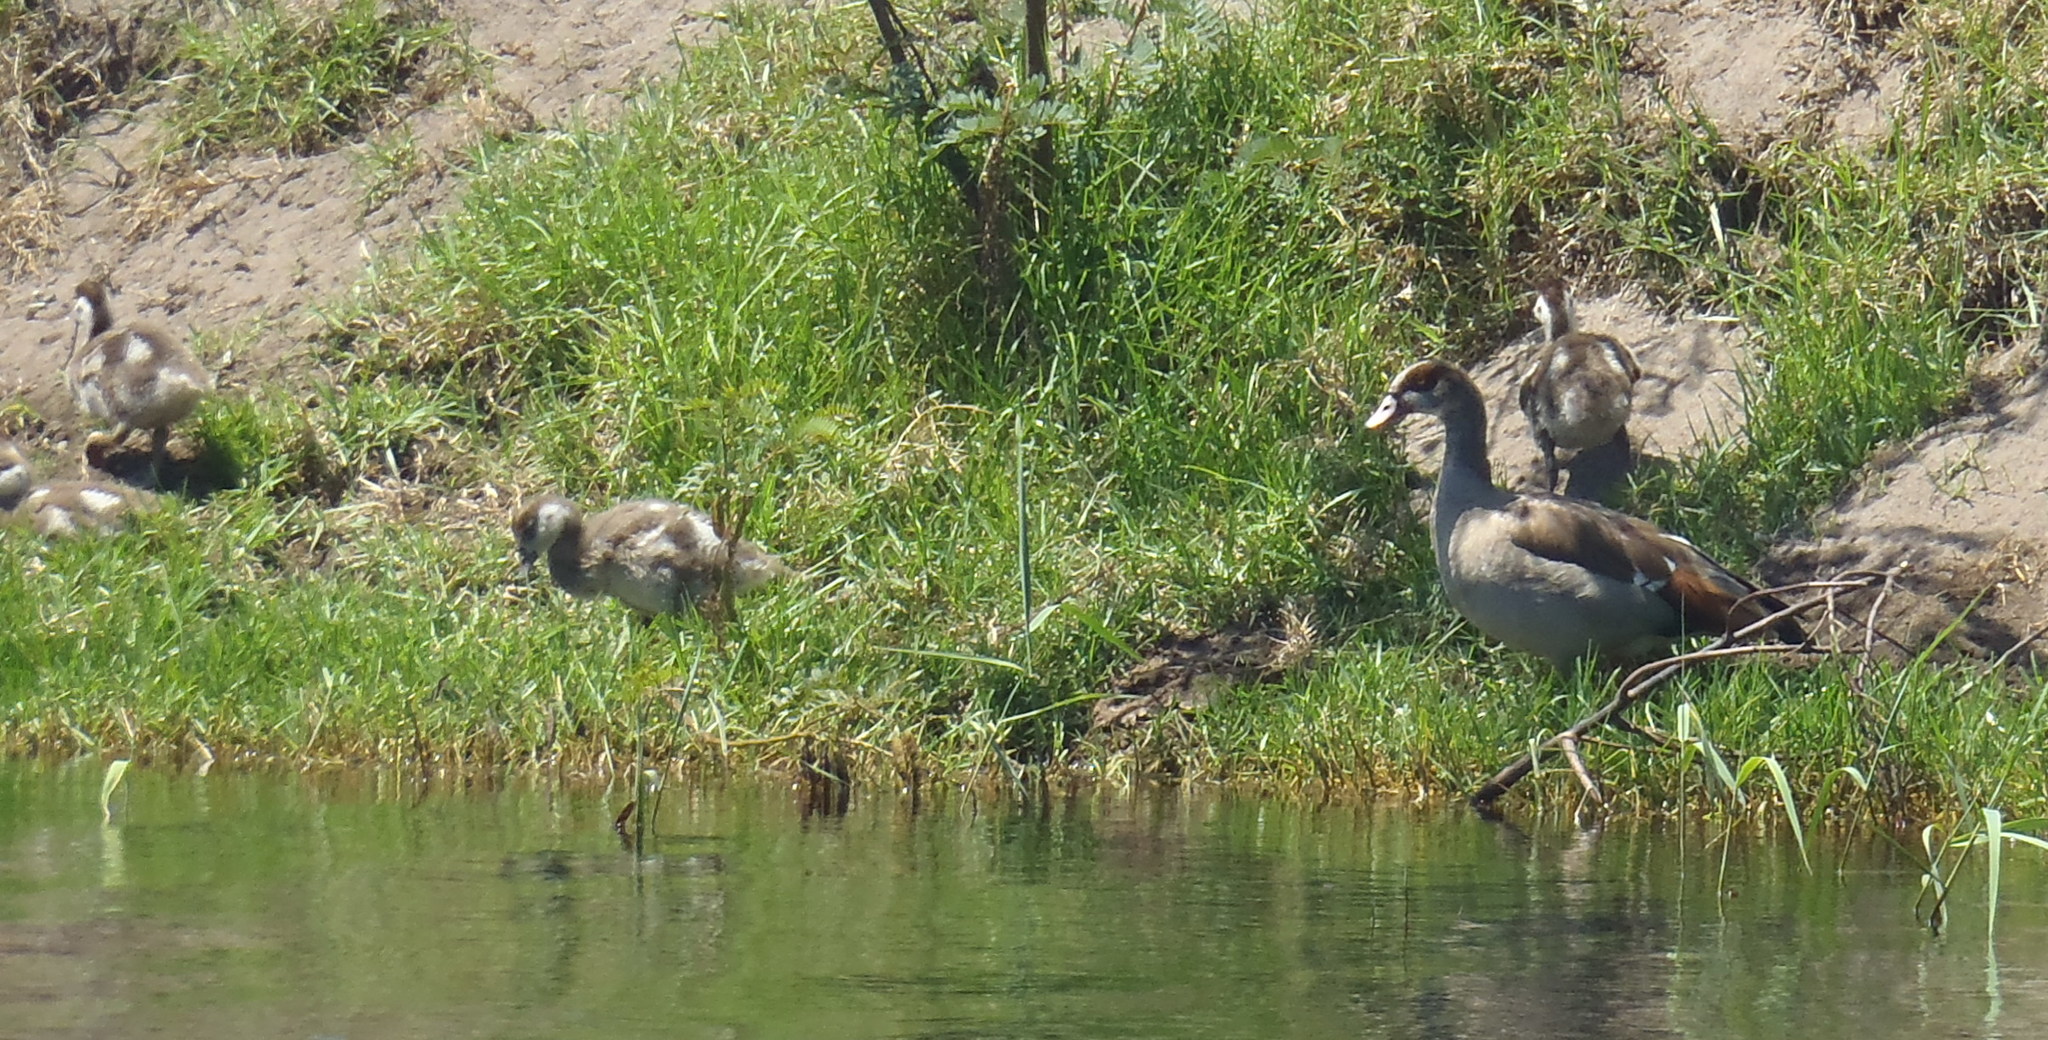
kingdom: Animalia
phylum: Chordata
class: Aves
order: Anseriformes
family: Anatidae
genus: Alopochen
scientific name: Alopochen aegyptiaca
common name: Egyptian goose
